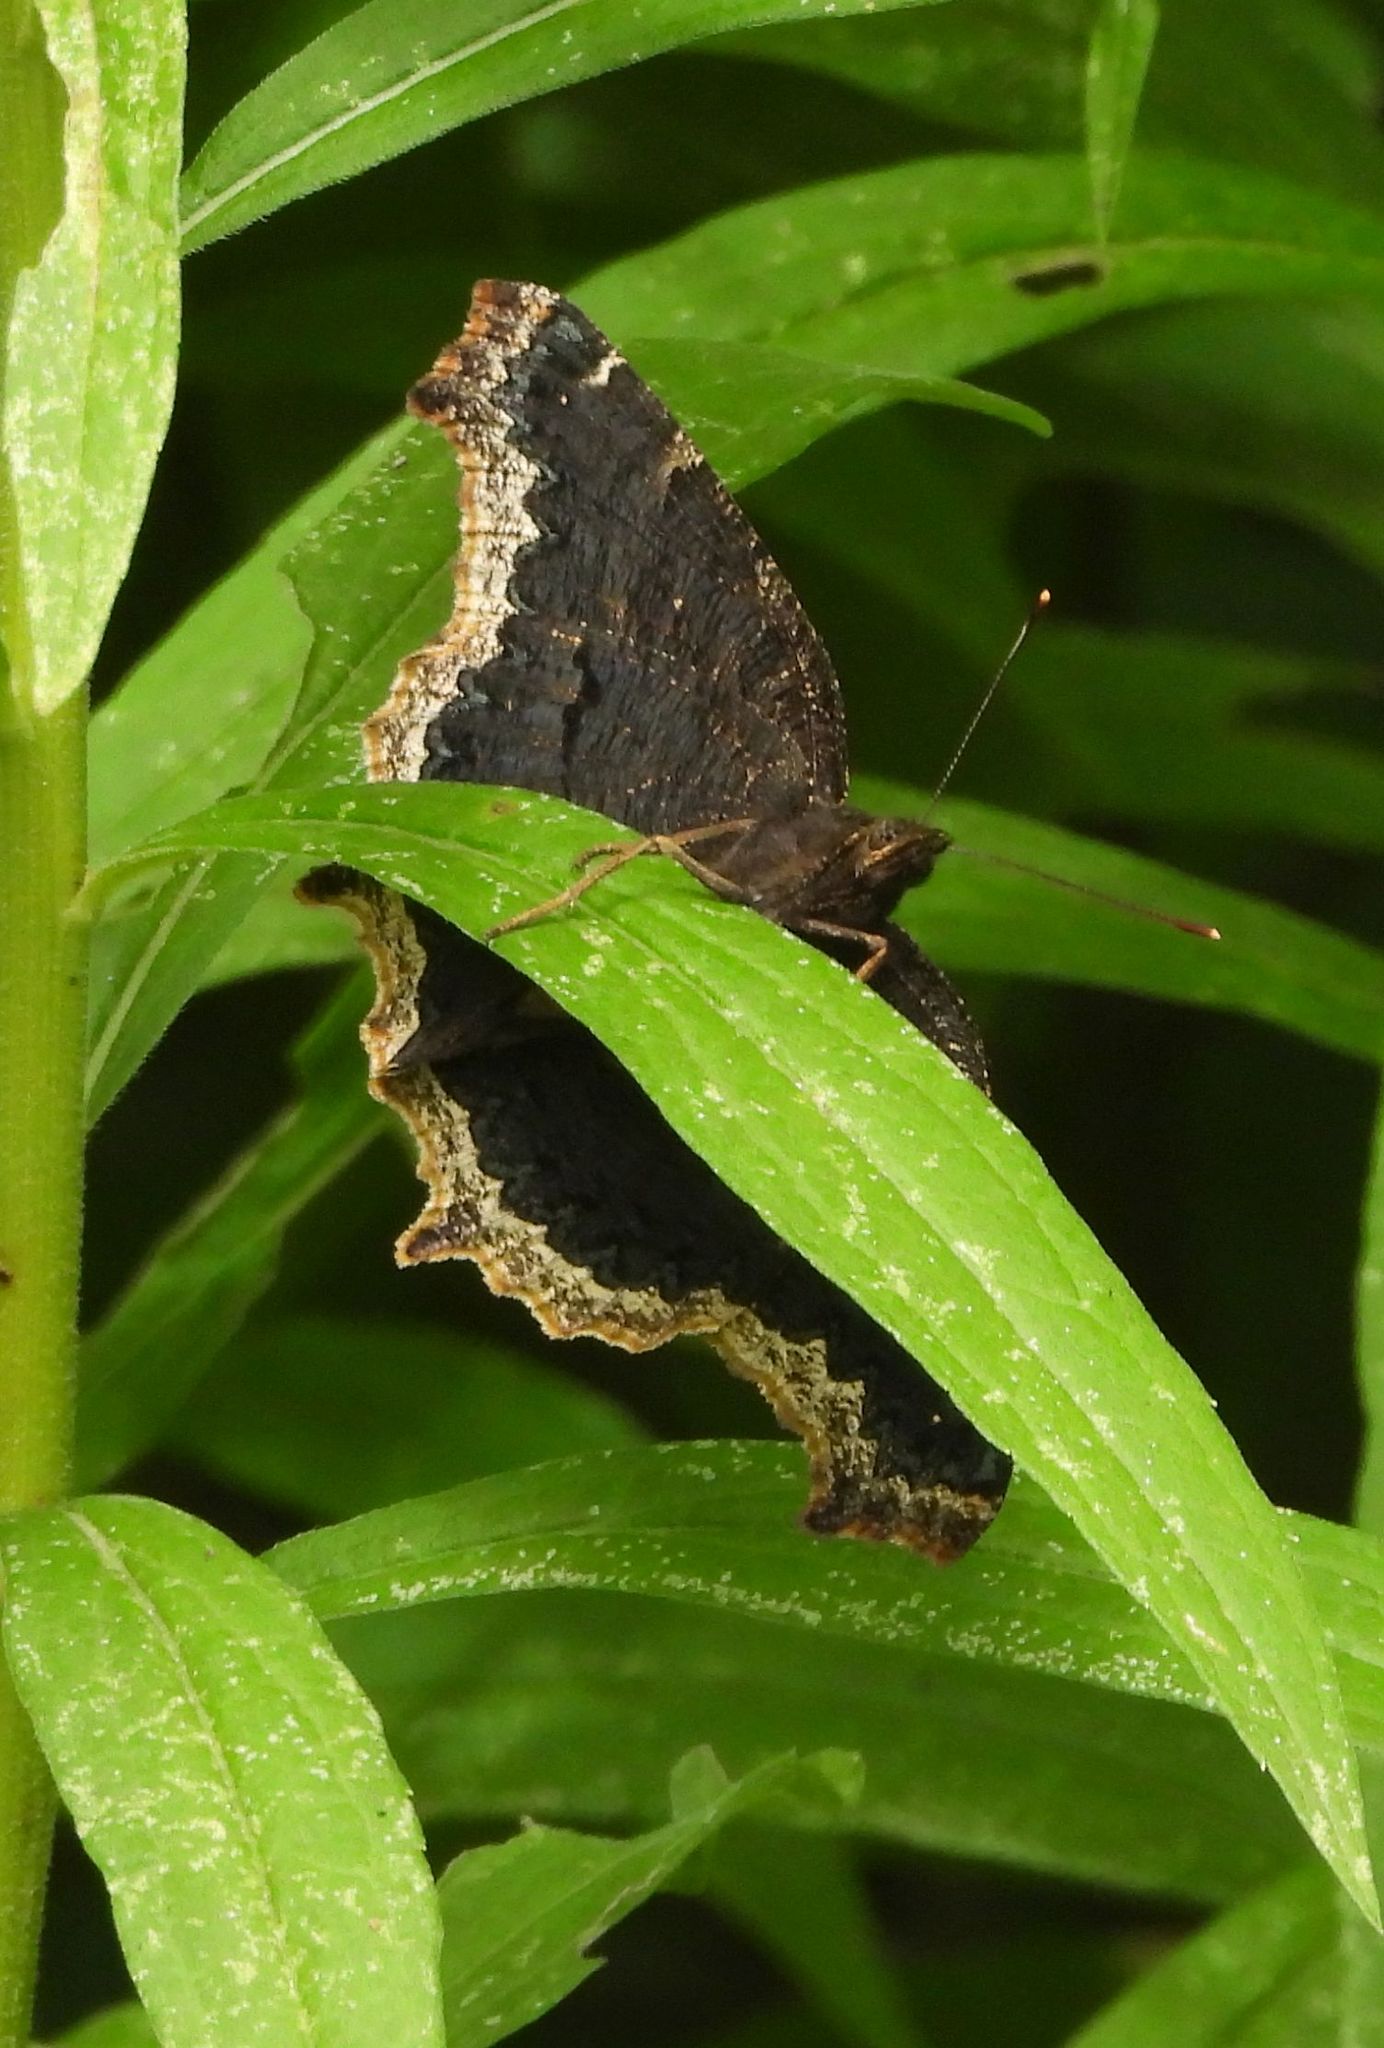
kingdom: Animalia
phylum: Arthropoda
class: Insecta
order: Lepidoptera
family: Nymphalidae
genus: Nymphalis
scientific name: Nymphalis antiopa
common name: Camberwell beauty
